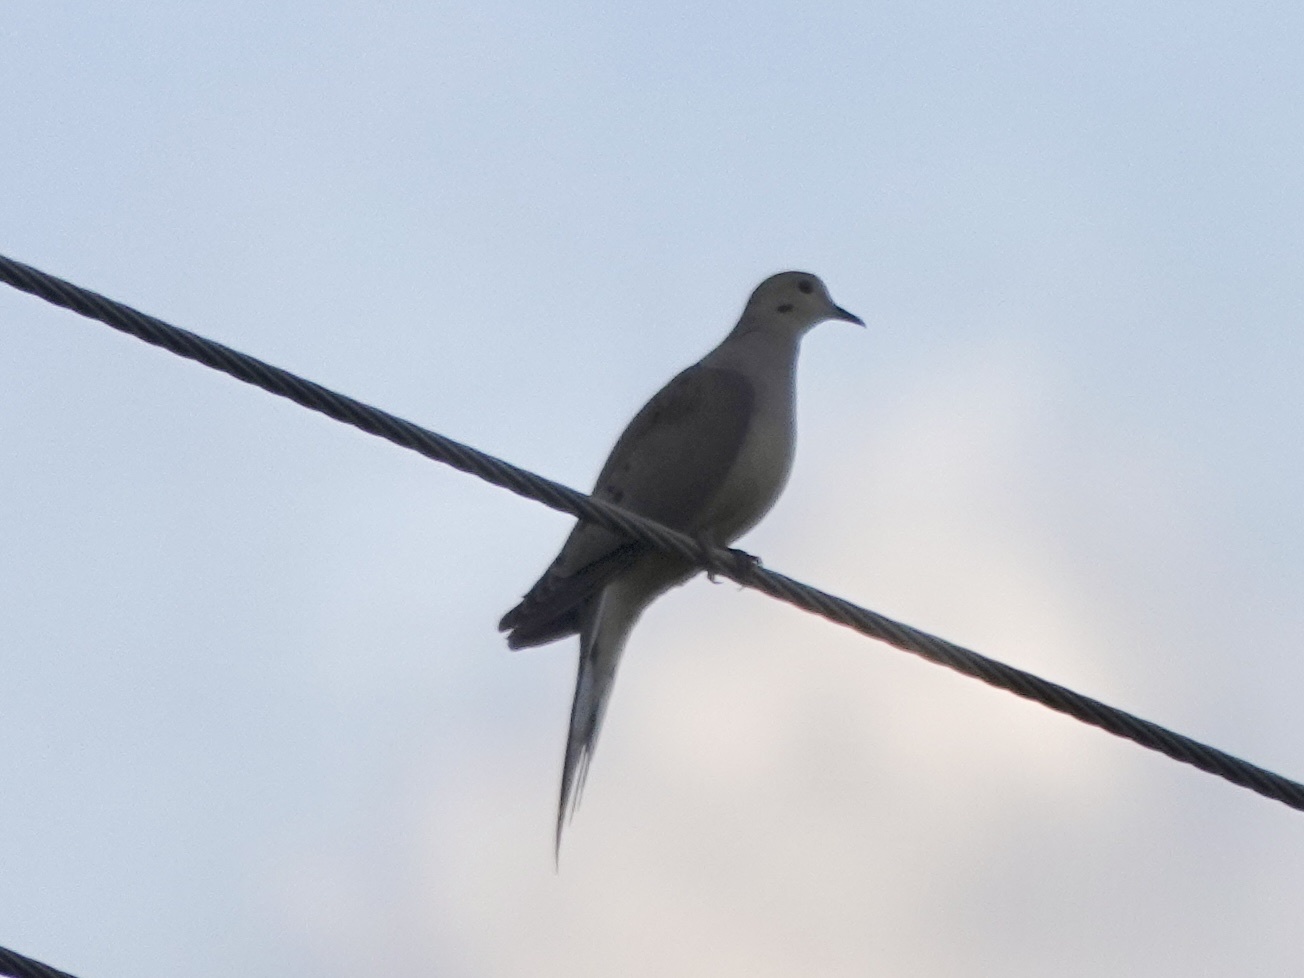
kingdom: Animalia
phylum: Chordata
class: Aves
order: Columbiformes
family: Columbidae
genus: Zenaida
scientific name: Zenaida macroura
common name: Mourning dove
